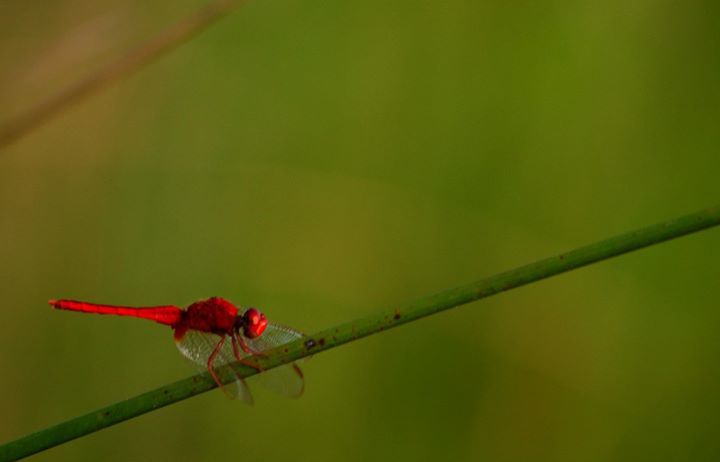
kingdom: Animalia
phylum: Arthropoda
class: Insecta
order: Odonata
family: Libellulidae
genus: Crocothemis
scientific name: Crocothemis servilia
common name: Scarlet skimmer
